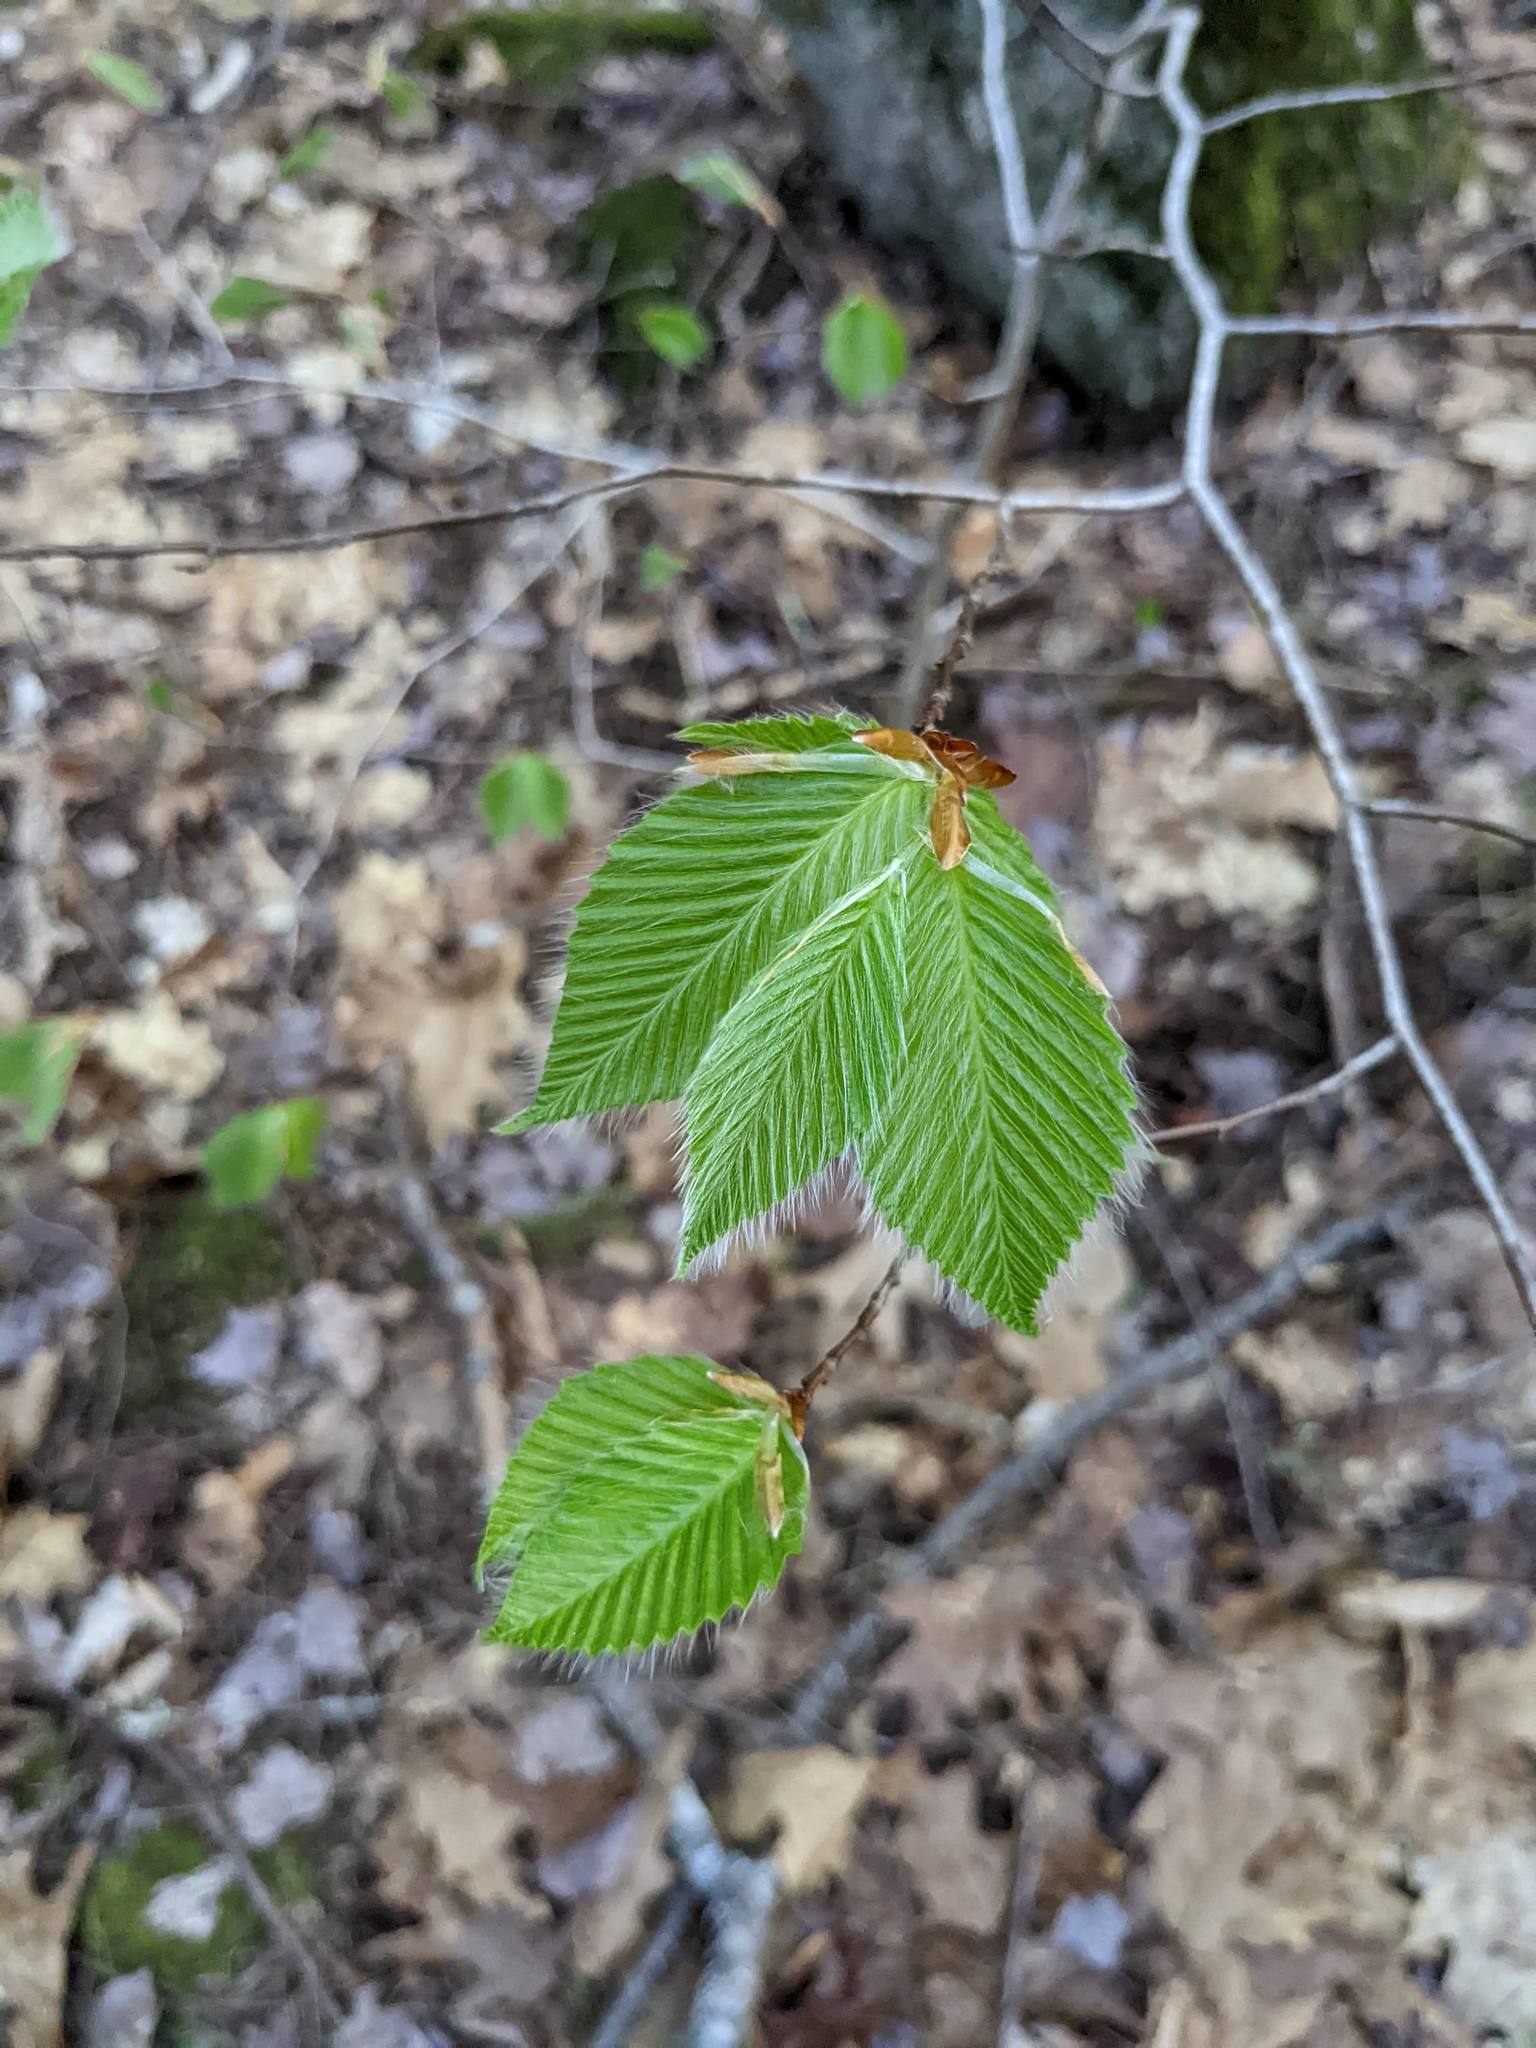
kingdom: Plantae
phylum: Tracheophyta
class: Magnoliopsida
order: Fagales
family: Fagaceae
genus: Fagus
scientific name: Fagus grandifolia
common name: American beech
